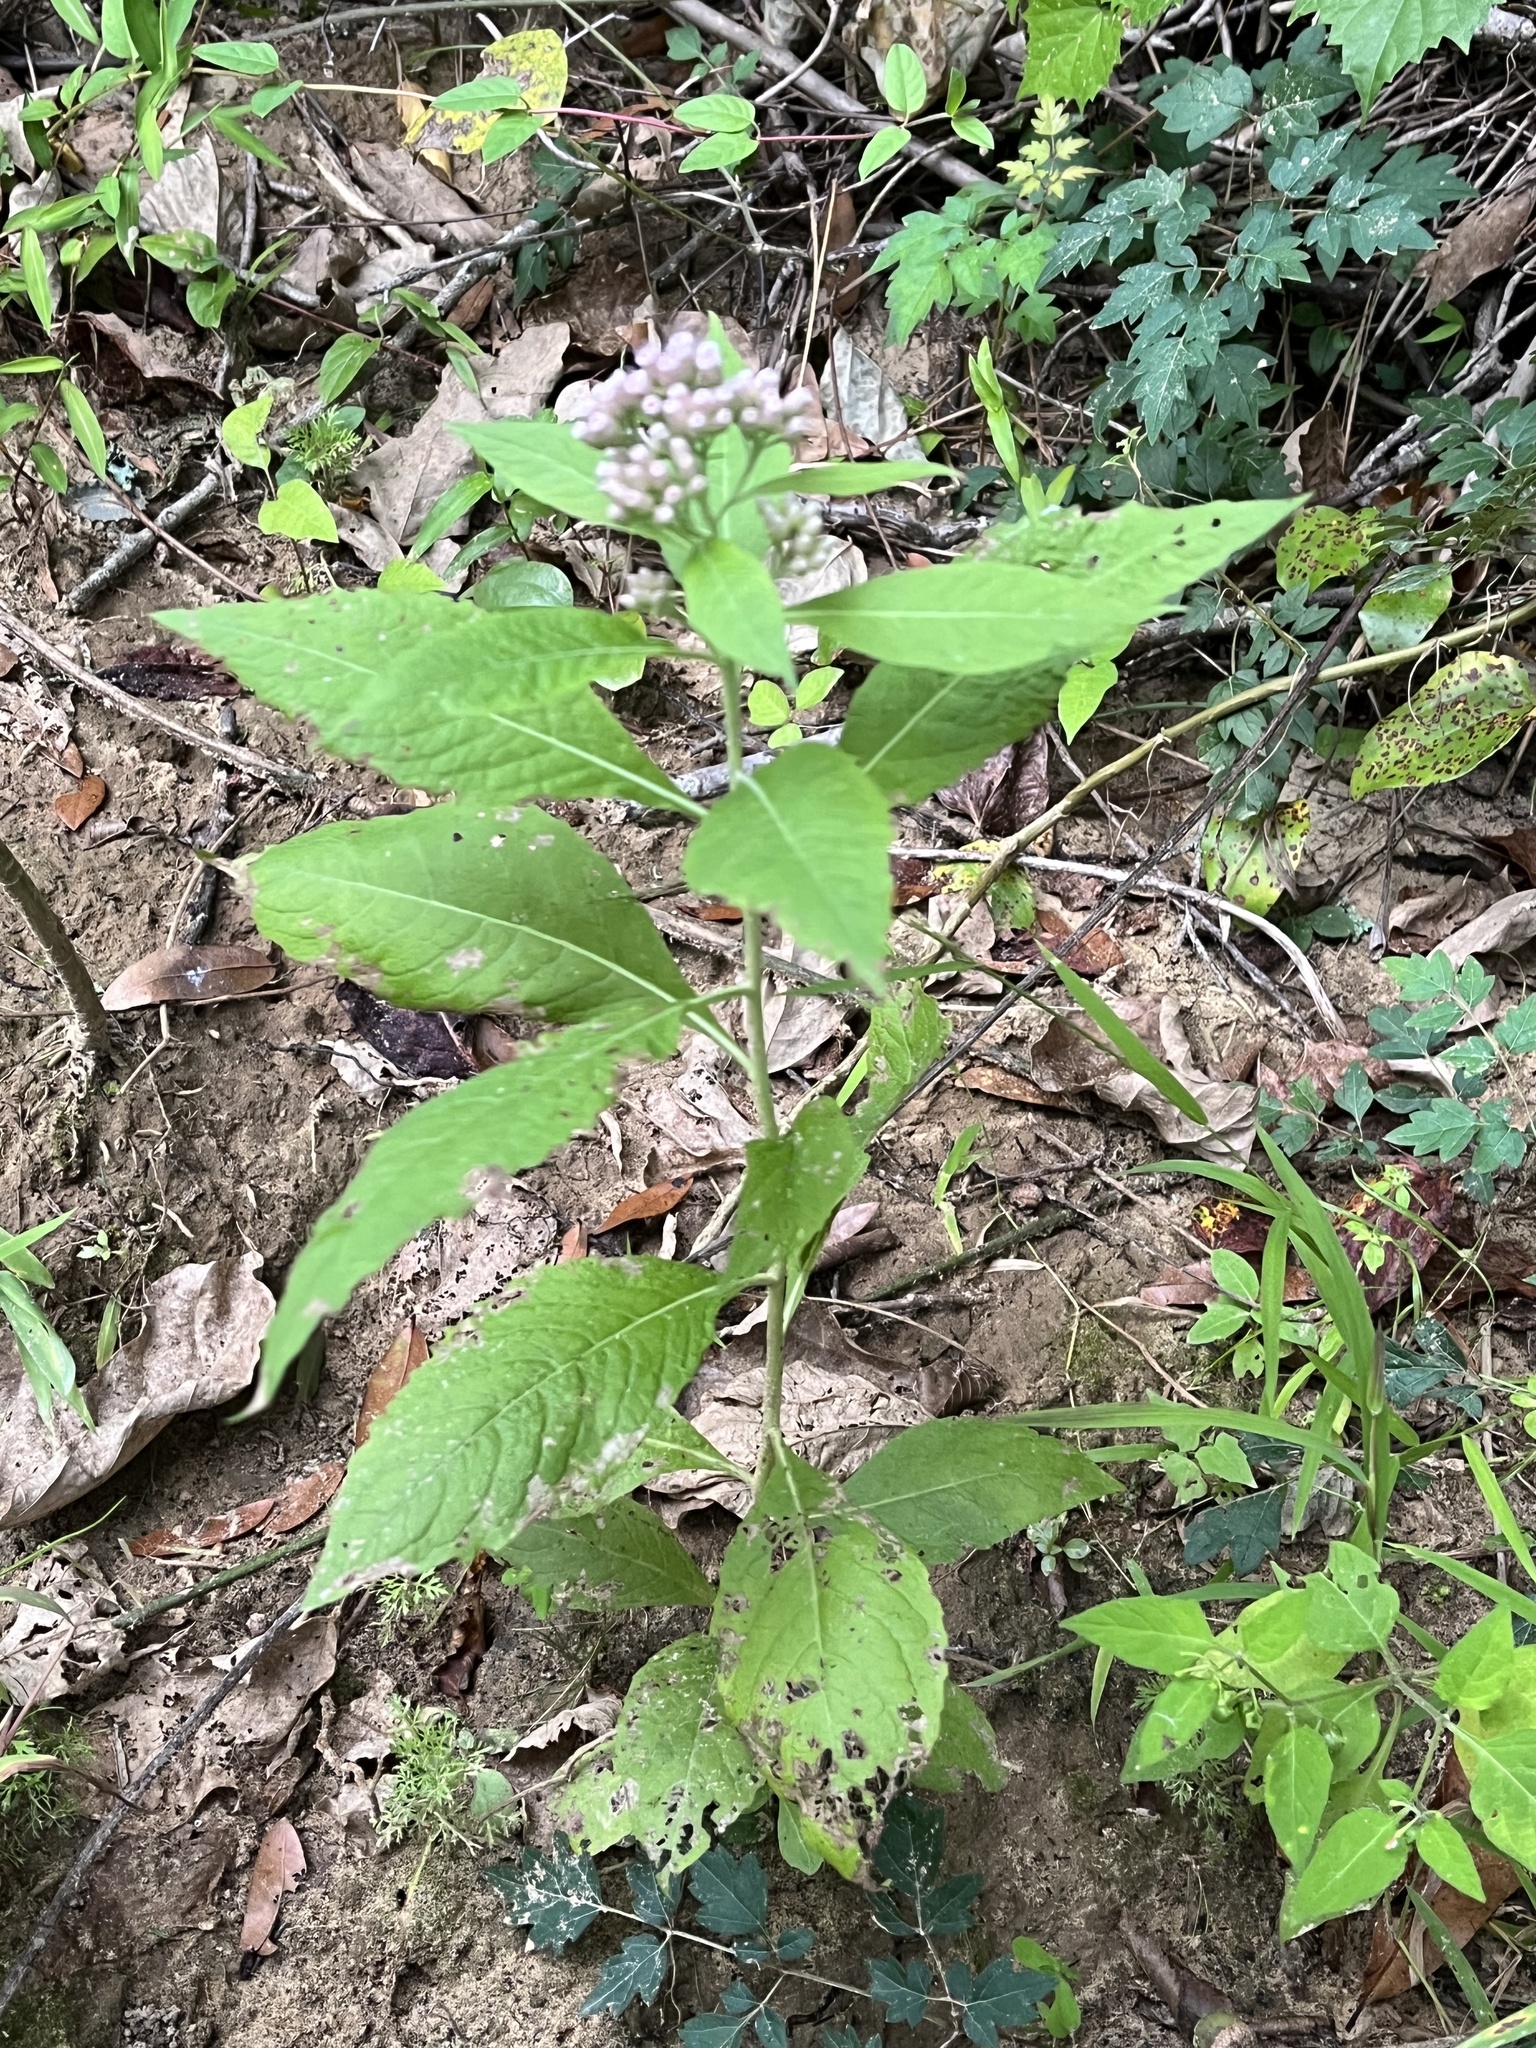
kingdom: Plantae
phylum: Tracheophyta
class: Magnoliopsida
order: Asterales
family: Asteraceae
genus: Pluchea
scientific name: Pluchea camphorata
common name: Camphor pluchea
